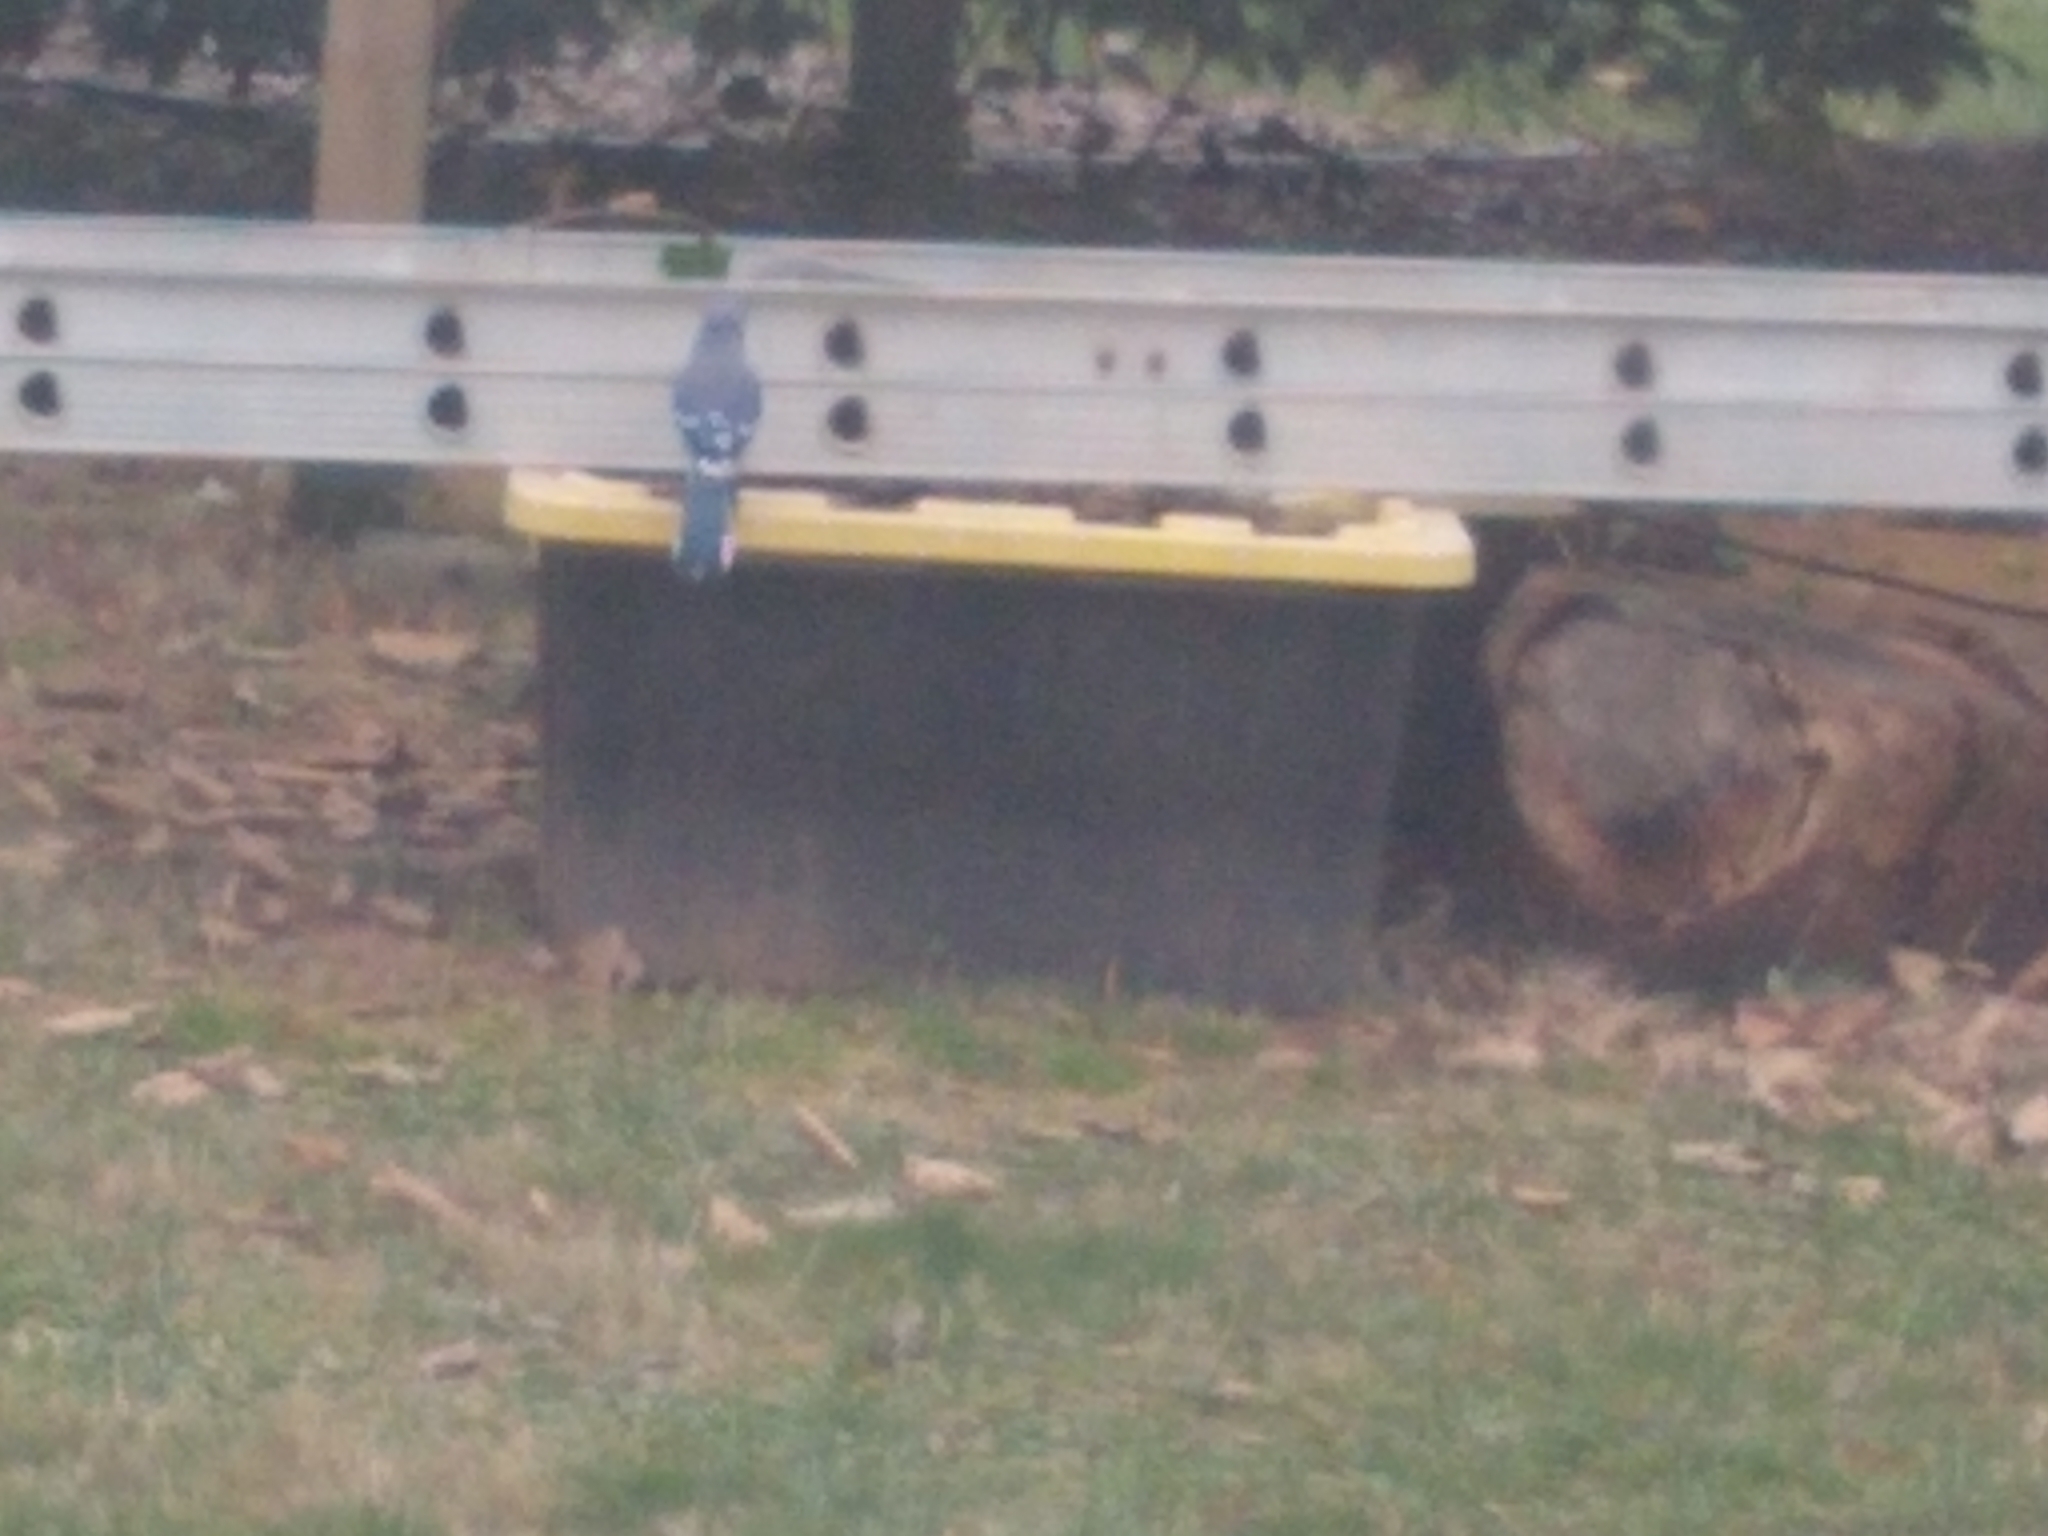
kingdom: Animalia
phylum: Chordata
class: Aves
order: Passeriformes
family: Corvidae
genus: Cyanocitta
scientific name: Cyanocitta cristata
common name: Blue jay
